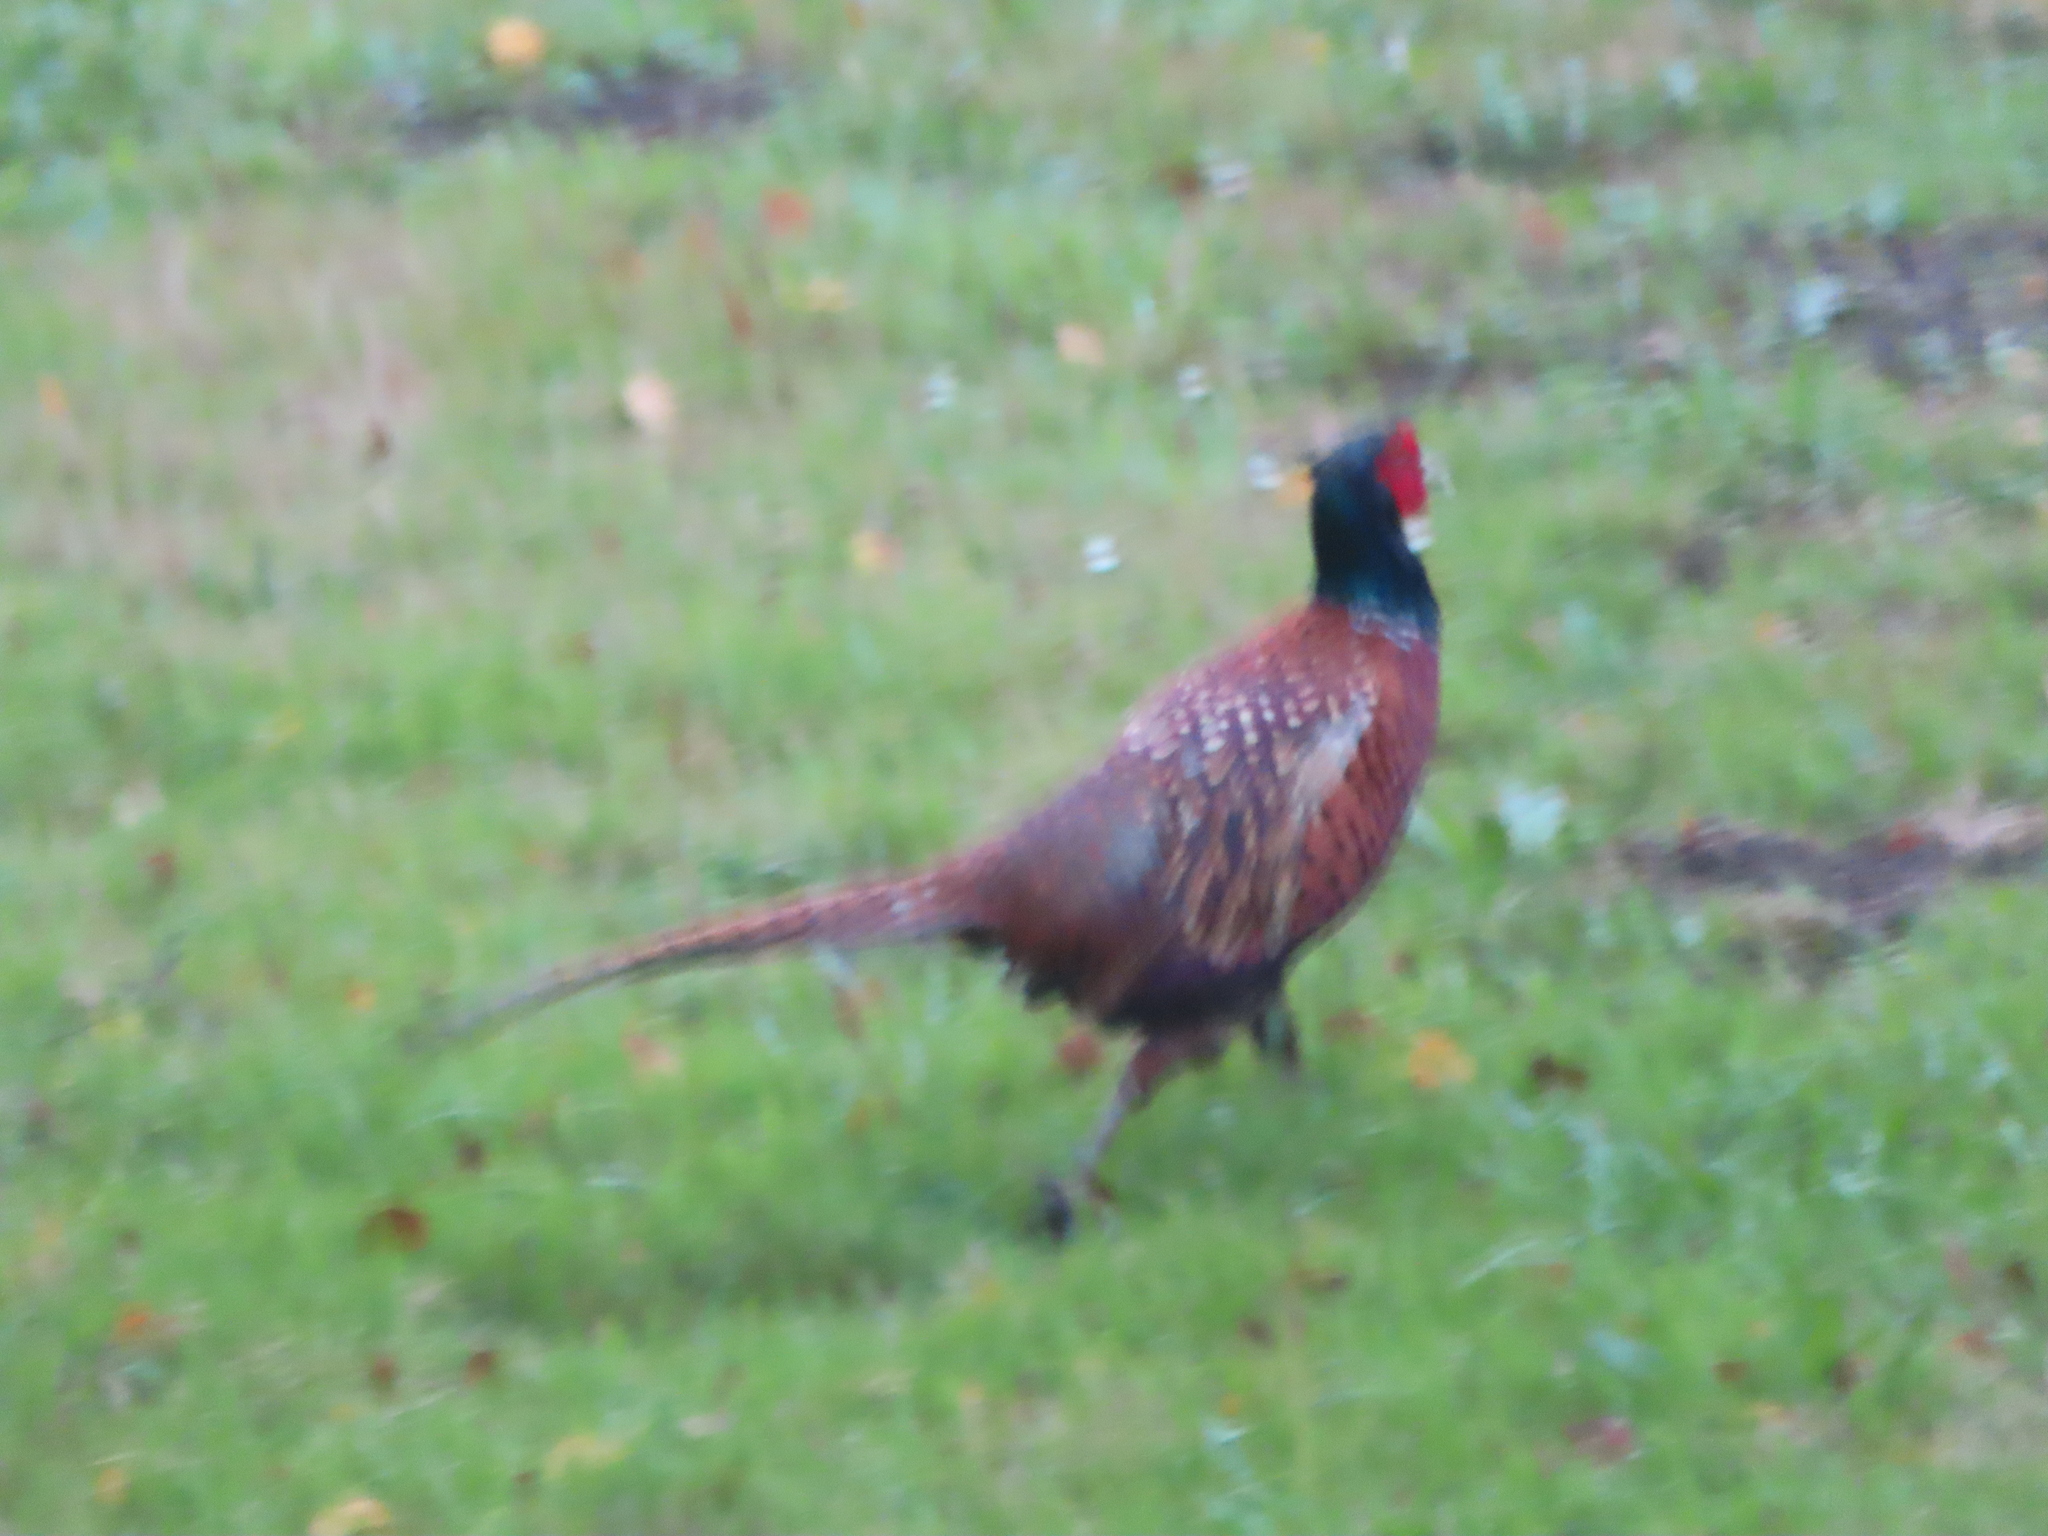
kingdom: Animalia
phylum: Chordata
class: Aves
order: Galliformes
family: Phasianidae
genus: Phasianus
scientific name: Phasianus colchicus
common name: Common pheasant
